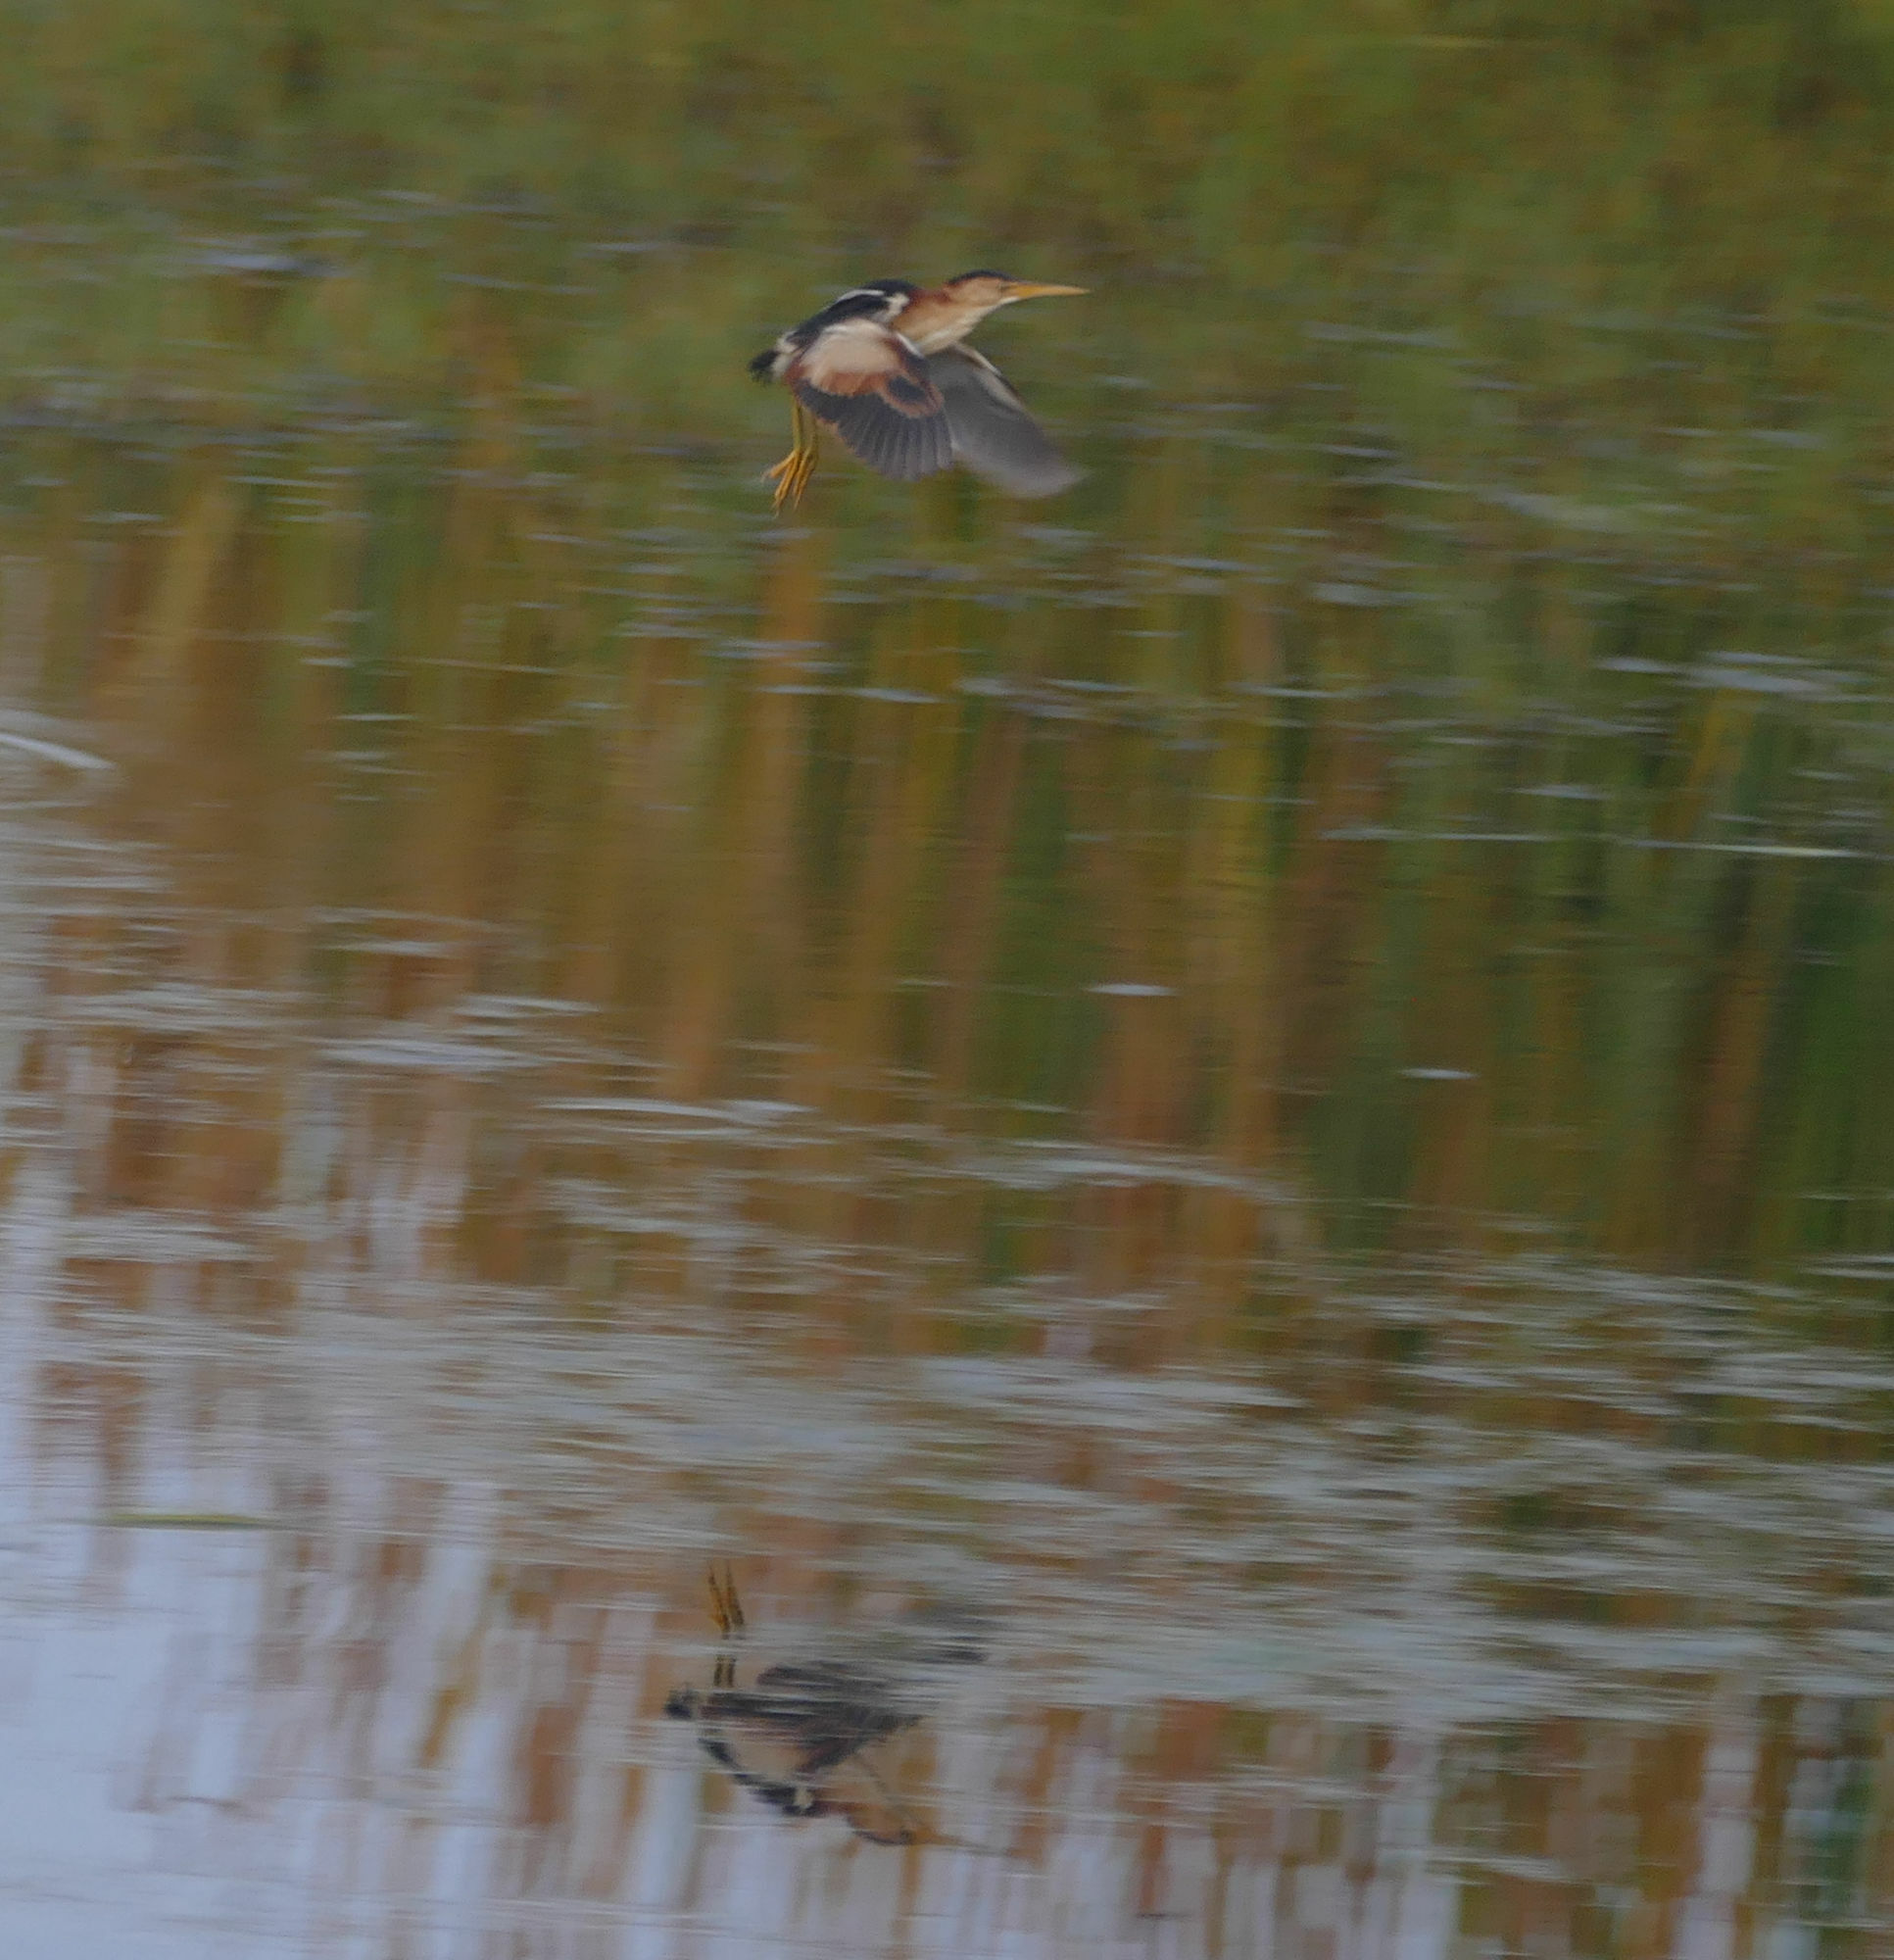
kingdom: Animalia
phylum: Chordata
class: Aves
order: Pelecaniformes
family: Ardeidae
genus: Ixobrychus
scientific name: Ixobrychus exilis
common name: Least bittern
